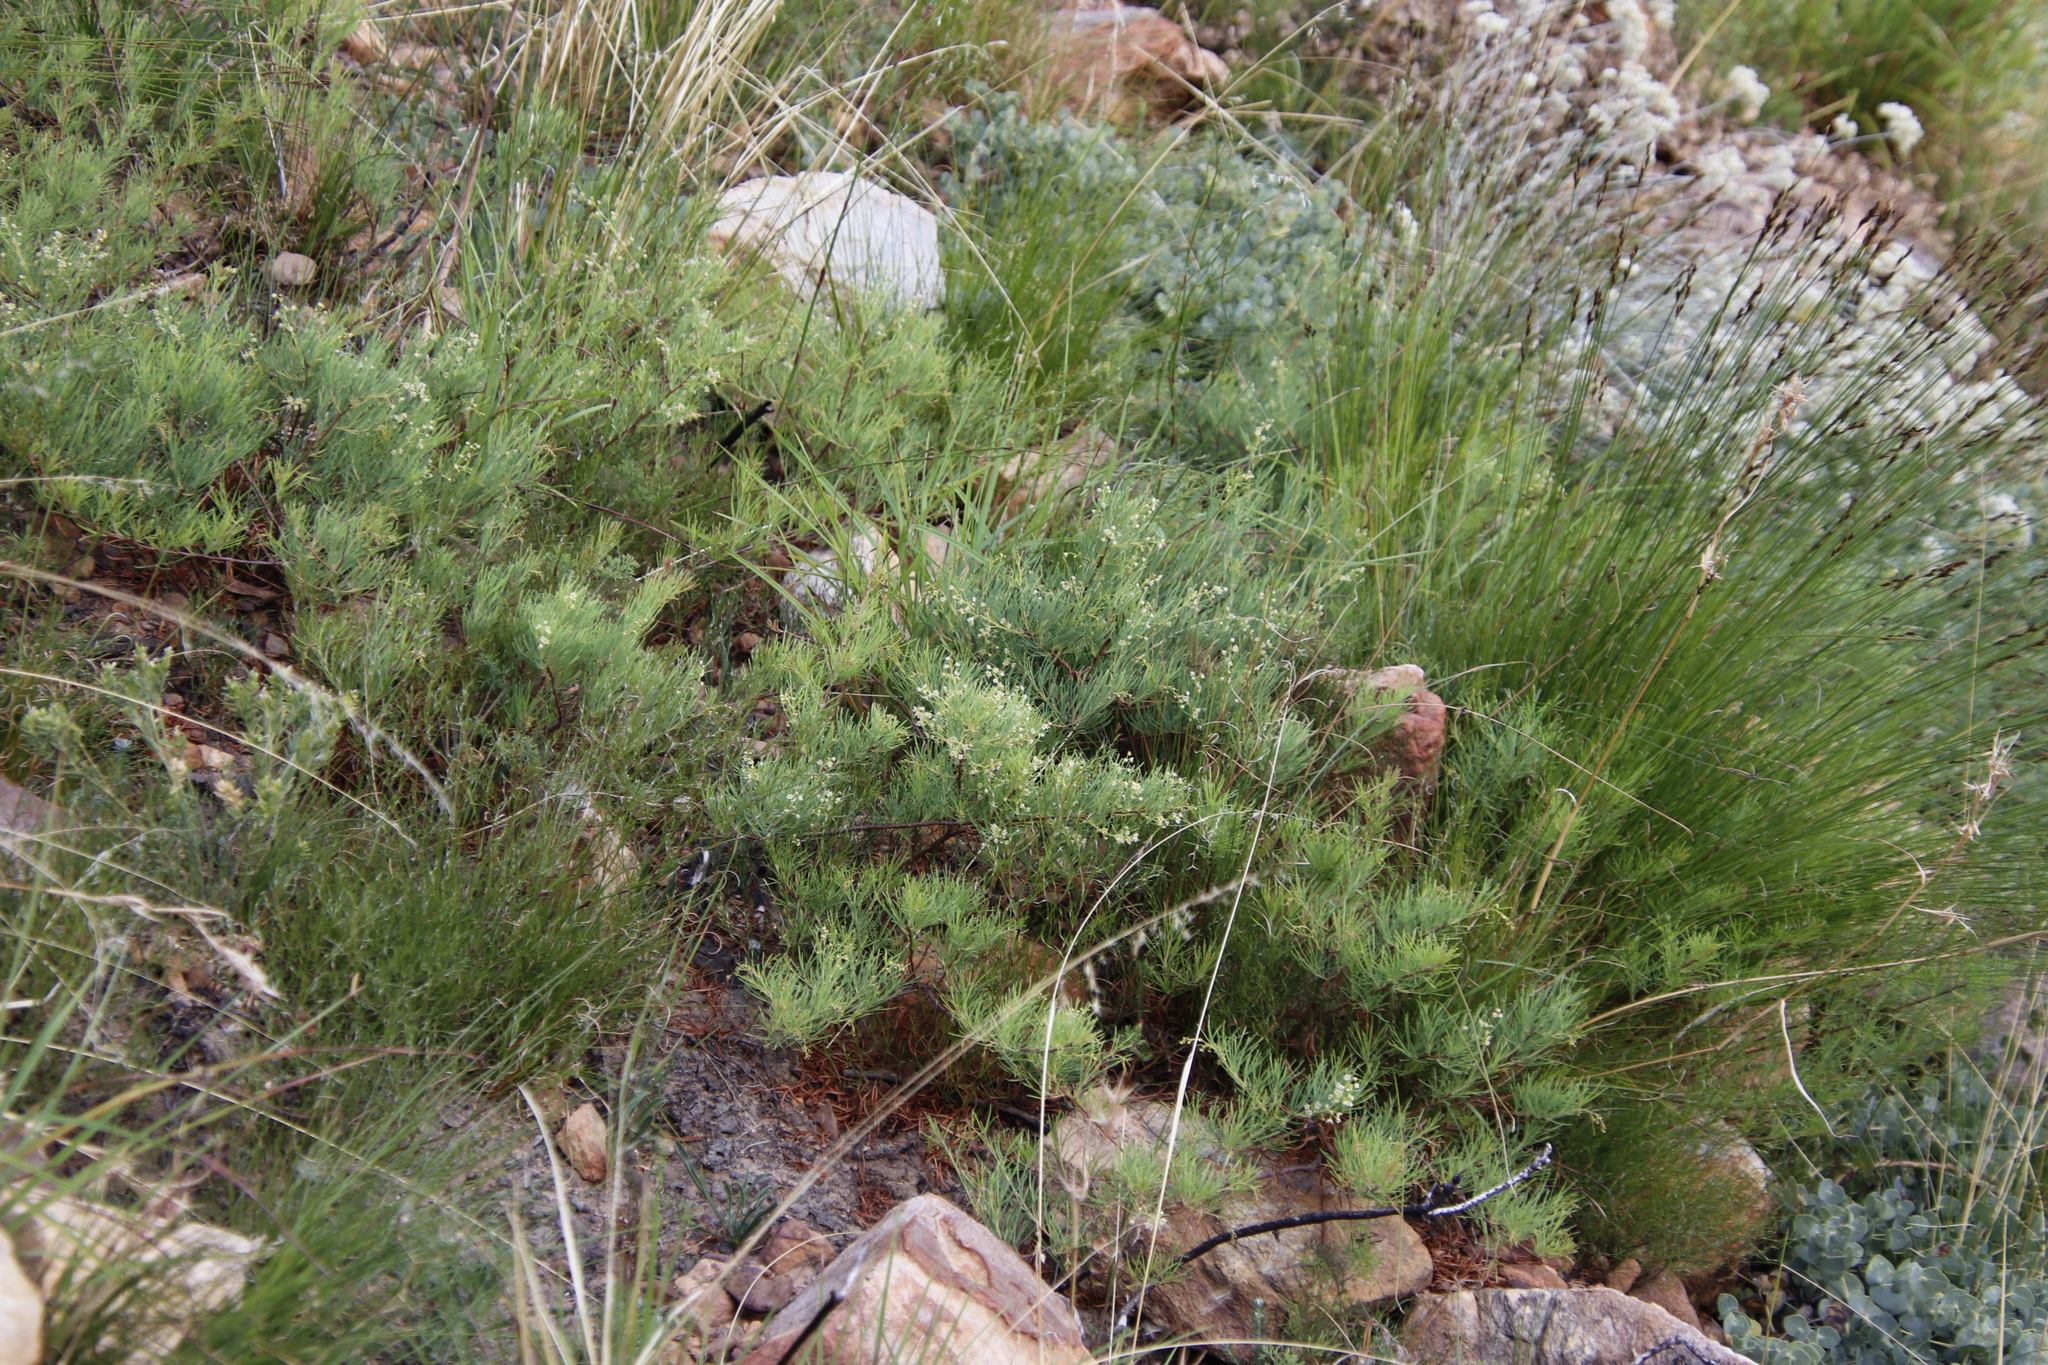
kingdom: Plantae
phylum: Tracheophyta
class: Magnoliopsida
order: Sapindales
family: Anacardiaceae
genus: Searsia
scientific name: Searsia rosmarinifolia
